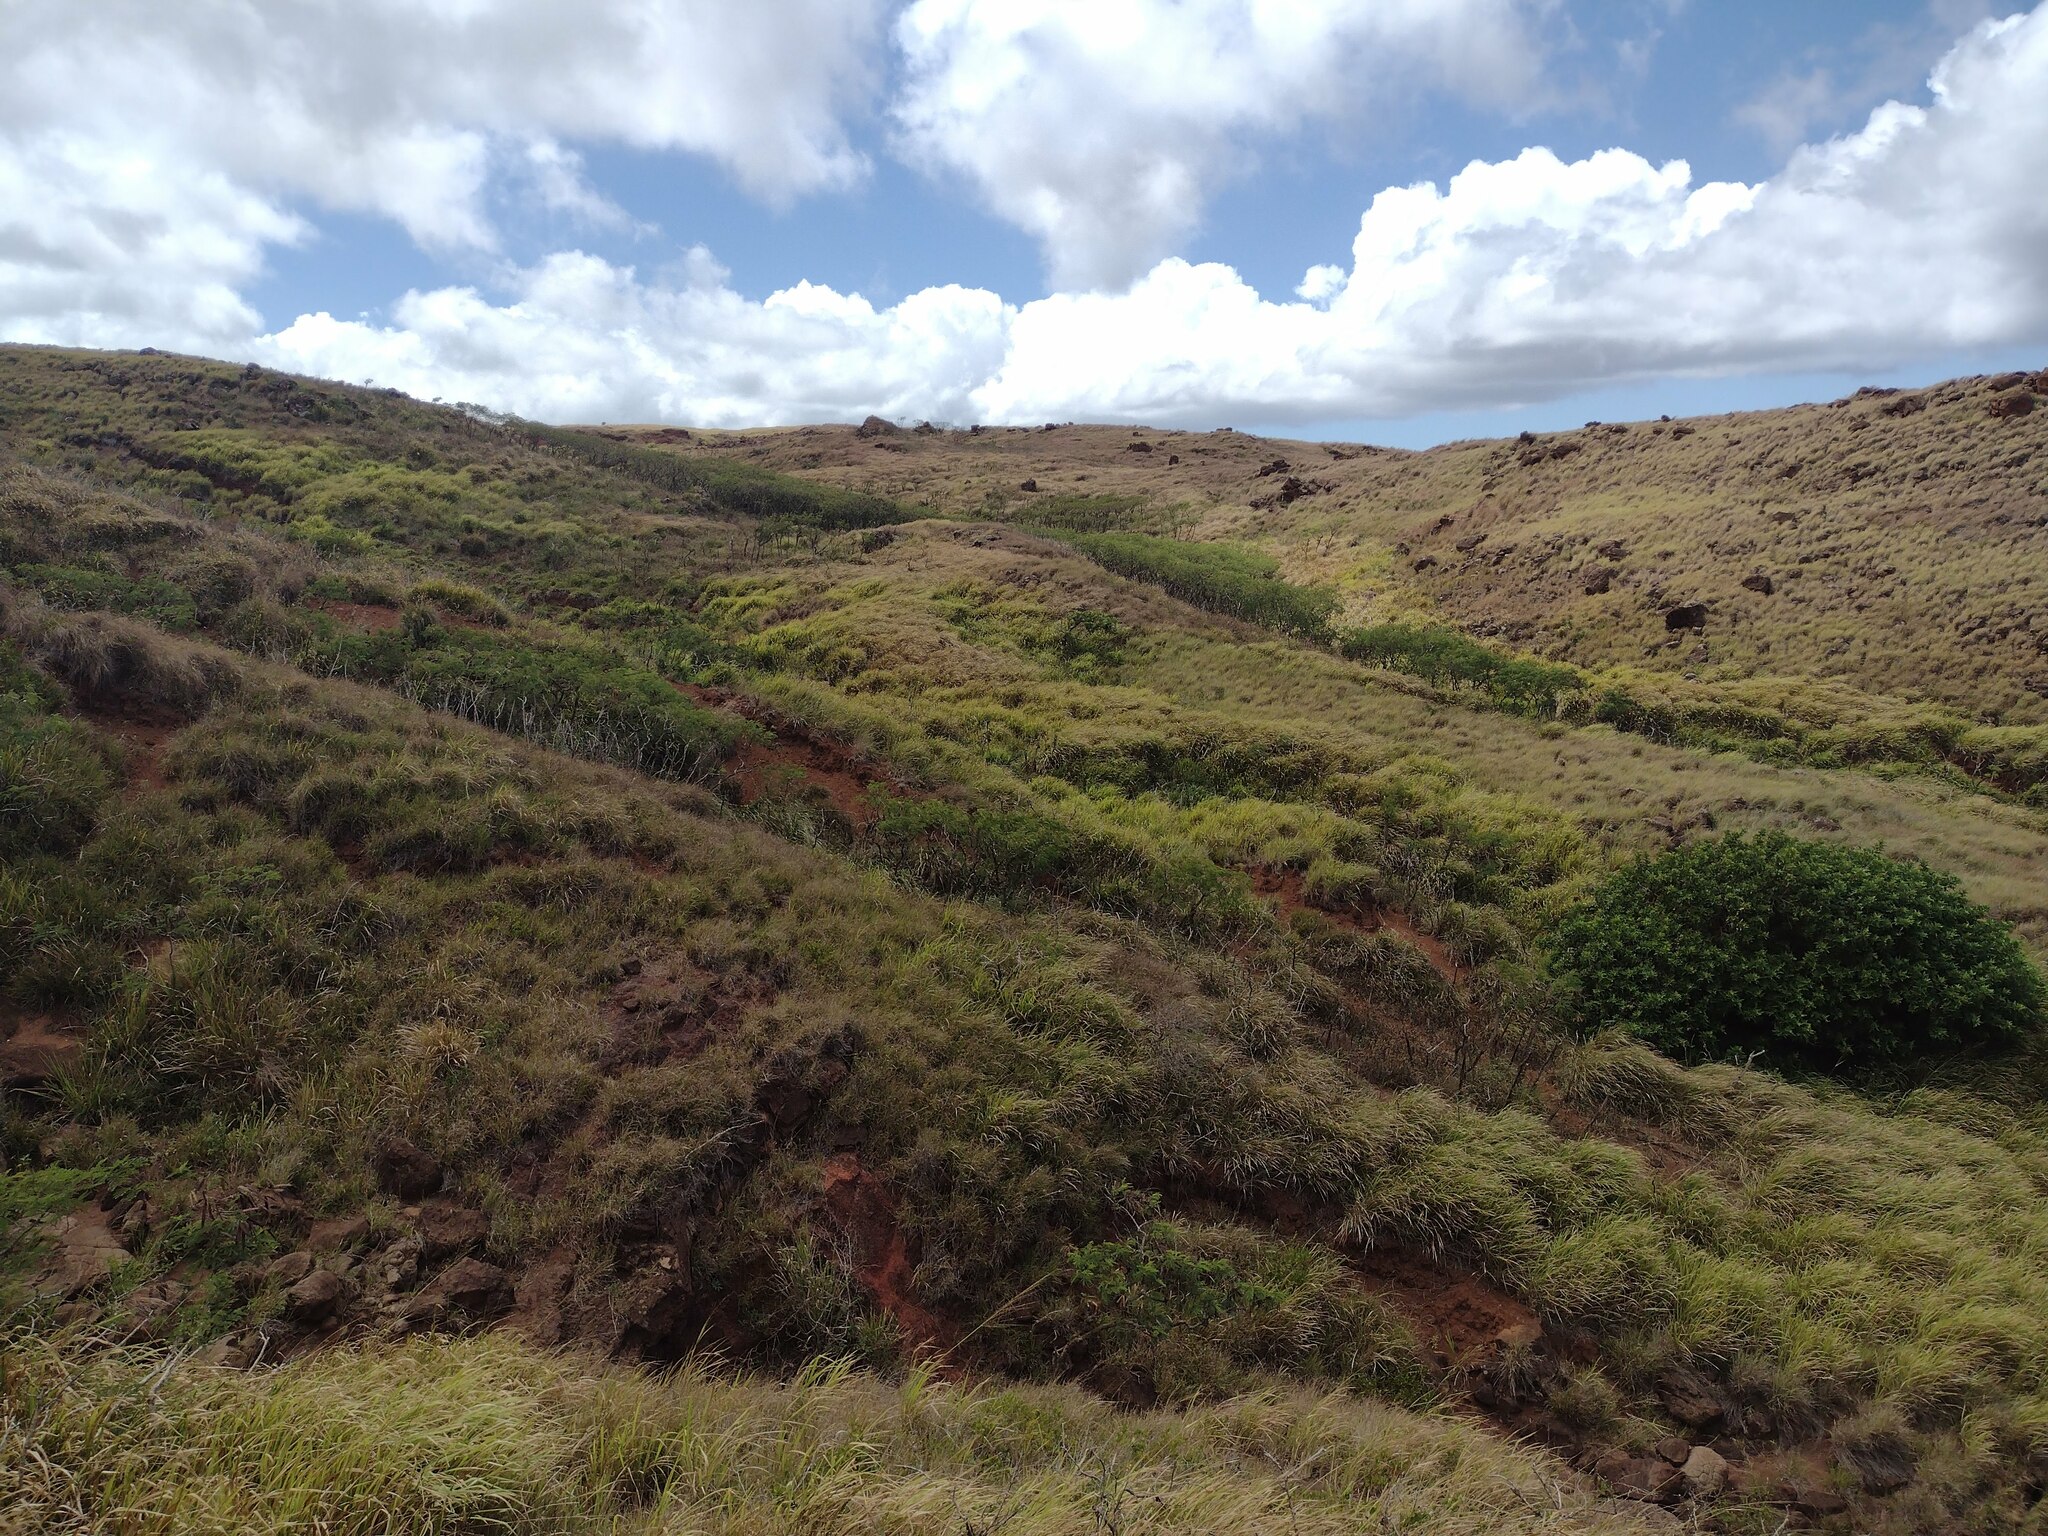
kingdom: Plantae
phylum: Tracheophyta
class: Liliopsida
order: Poales
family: Poaceae
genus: Megathyrsus
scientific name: Megathyrsus maximus
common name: Guineagrass
